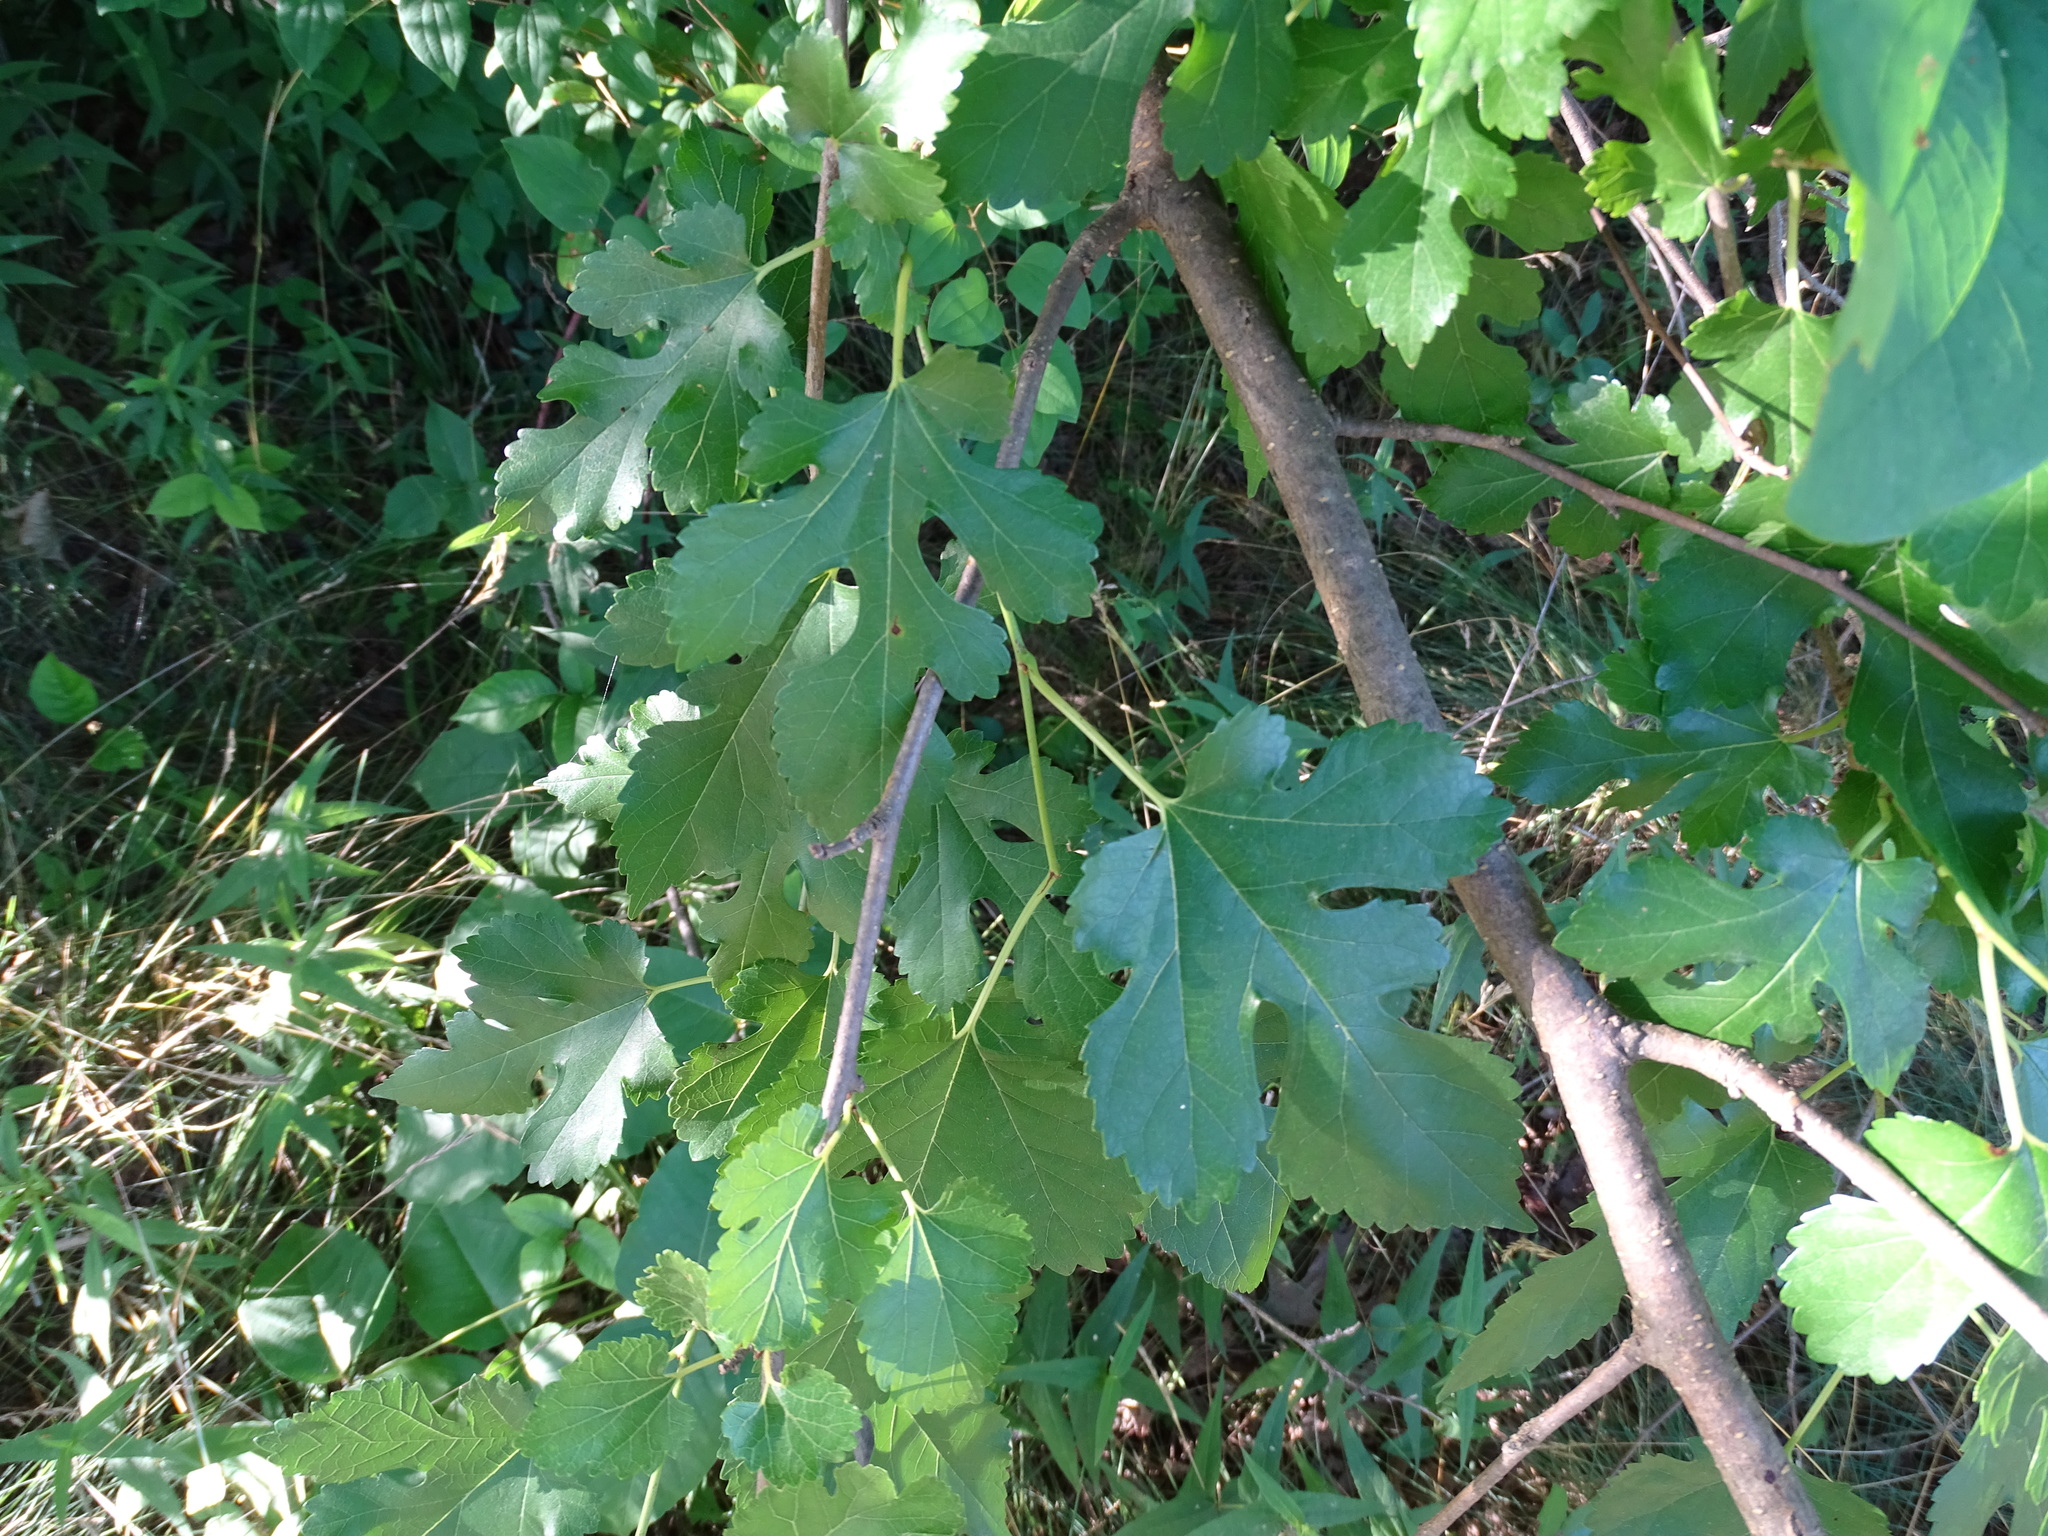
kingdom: Plantae
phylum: Tracheophyta
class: Magnoliopsida
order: Rosales
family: Moraceae
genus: Morus
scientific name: Morus alba
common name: White mulberry
